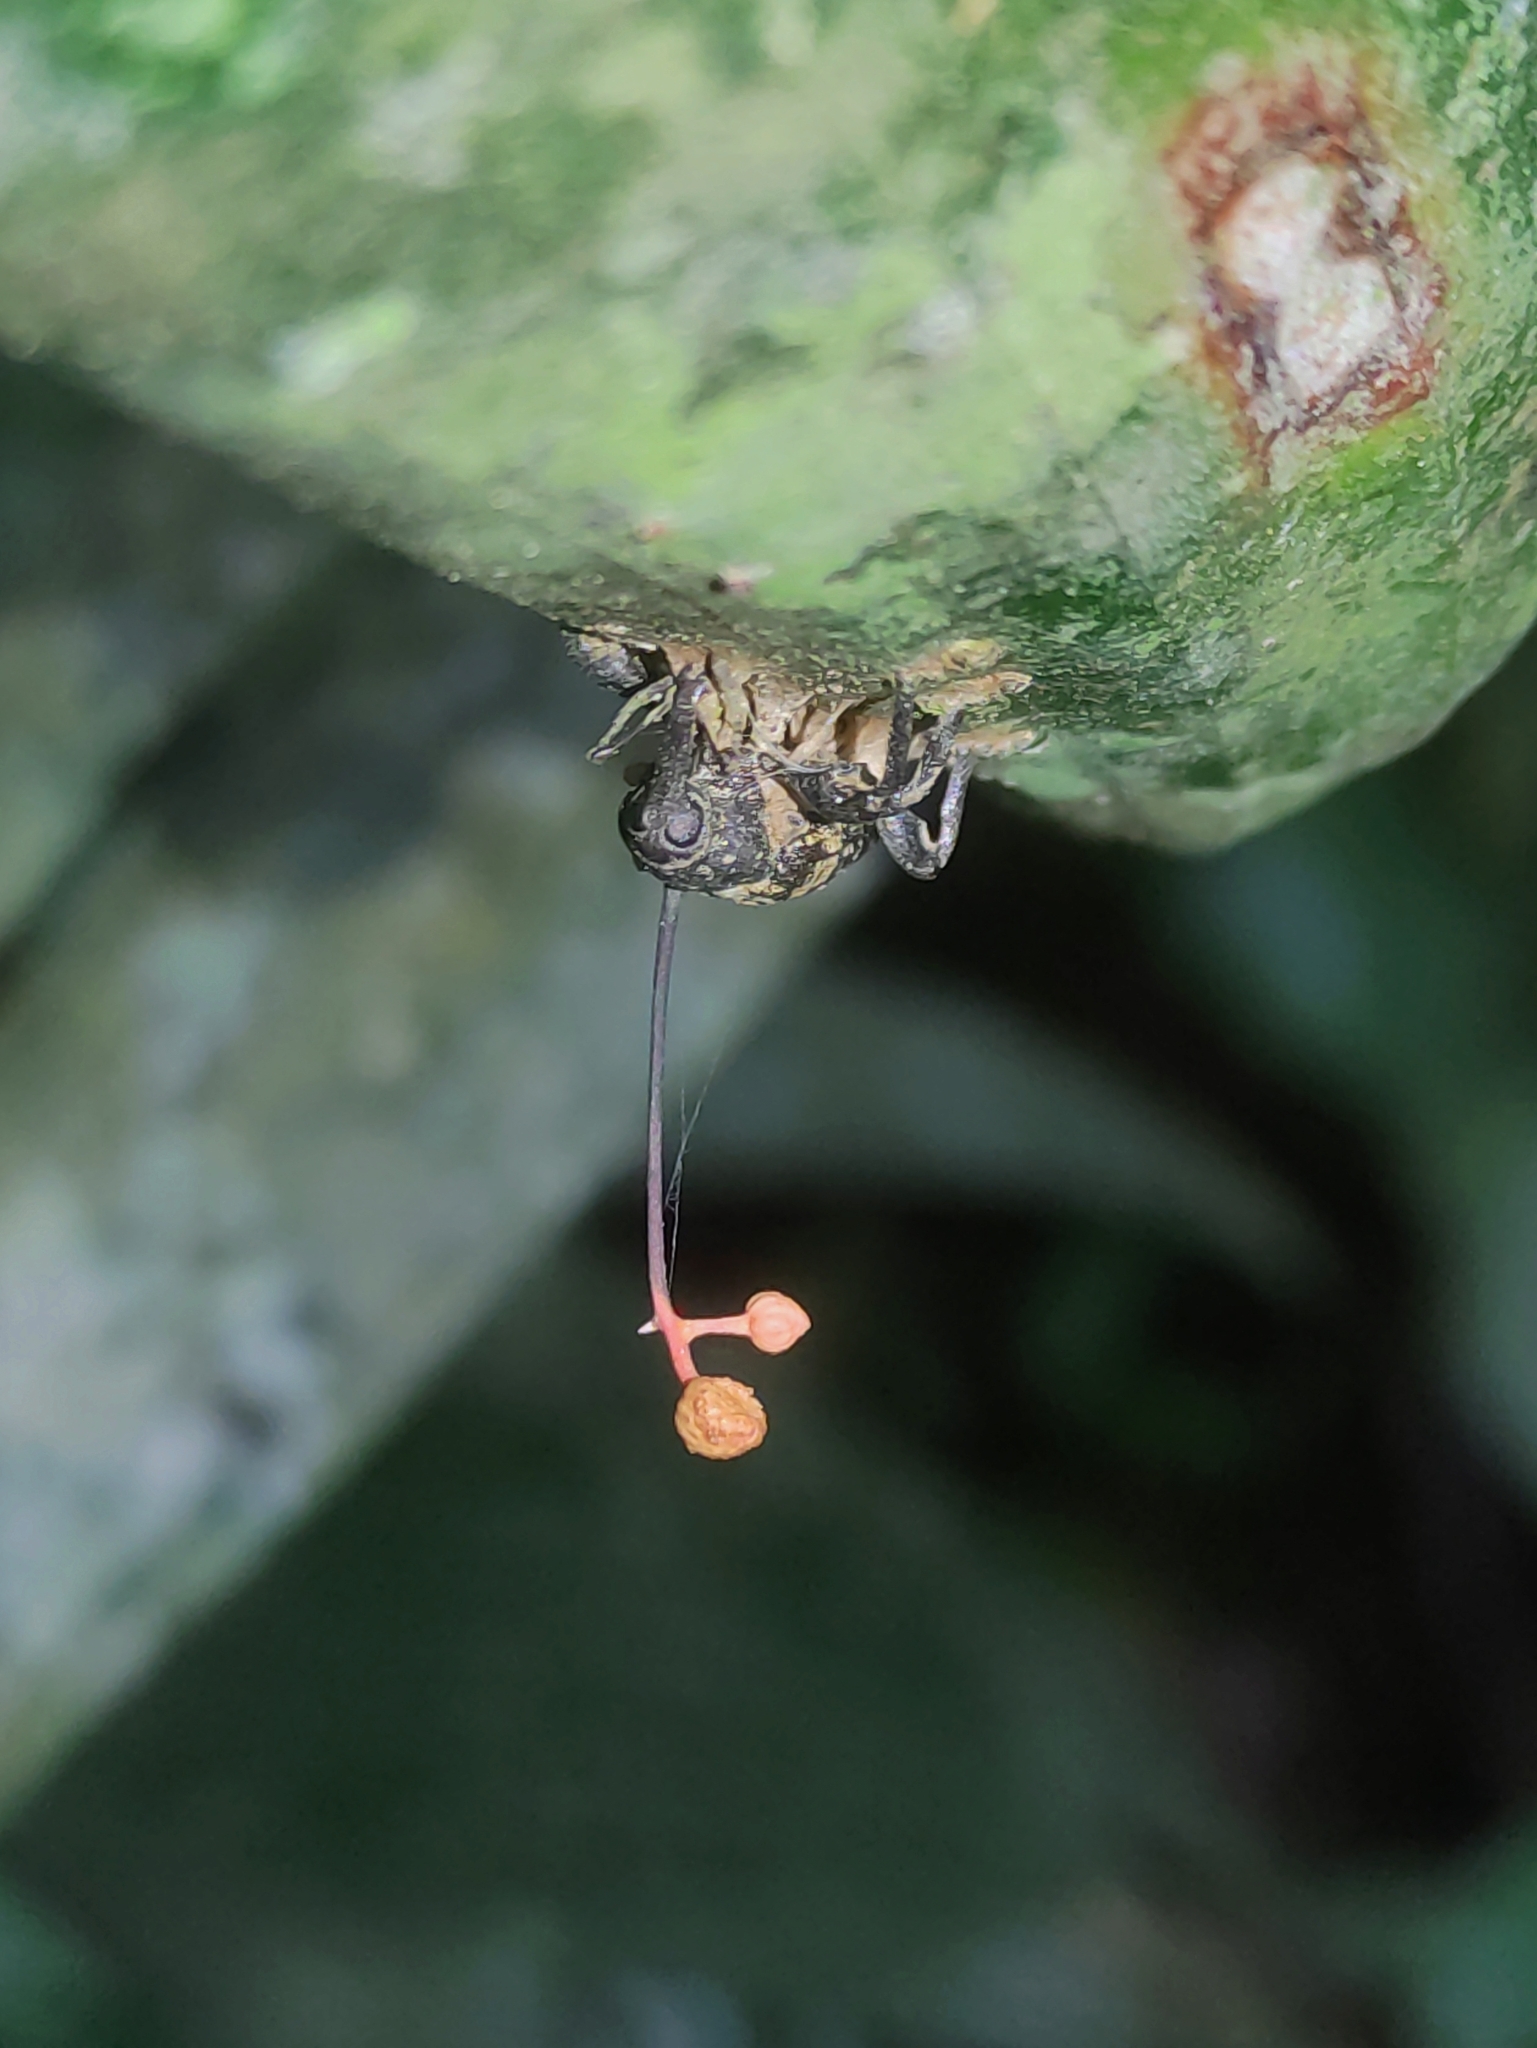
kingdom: Fungi
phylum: Ascomycota
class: Sordariomycetes
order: Hypocreales
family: Ophiocordycipitaceae
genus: Ophiocordyceps
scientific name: Ophiocordyceps curculionum
